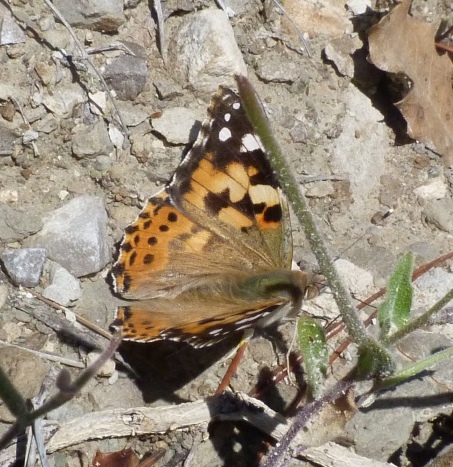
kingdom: Animalia
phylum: Arthropoda
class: Insecta
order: Lepidoptera
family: Nymphalidae
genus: Vanessa
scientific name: Vanessa cardui
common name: Painted lady
